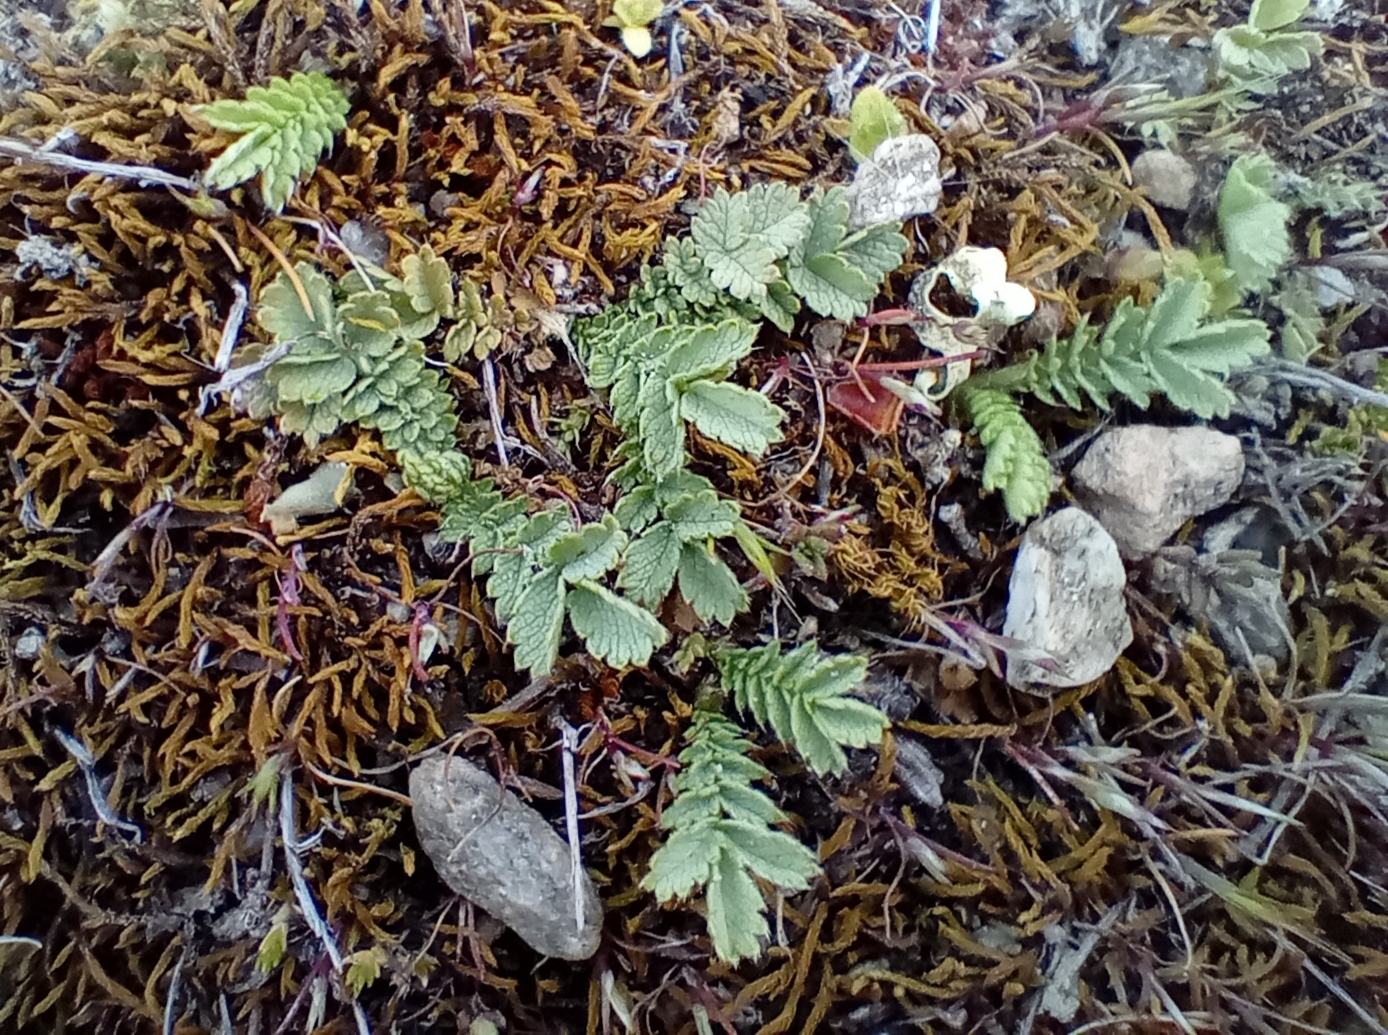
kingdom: Plantae
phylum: Tracheophyta
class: Magnoliopsida
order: Rosales
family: Rosaceae
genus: Acaena
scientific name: Acaena buchananii
